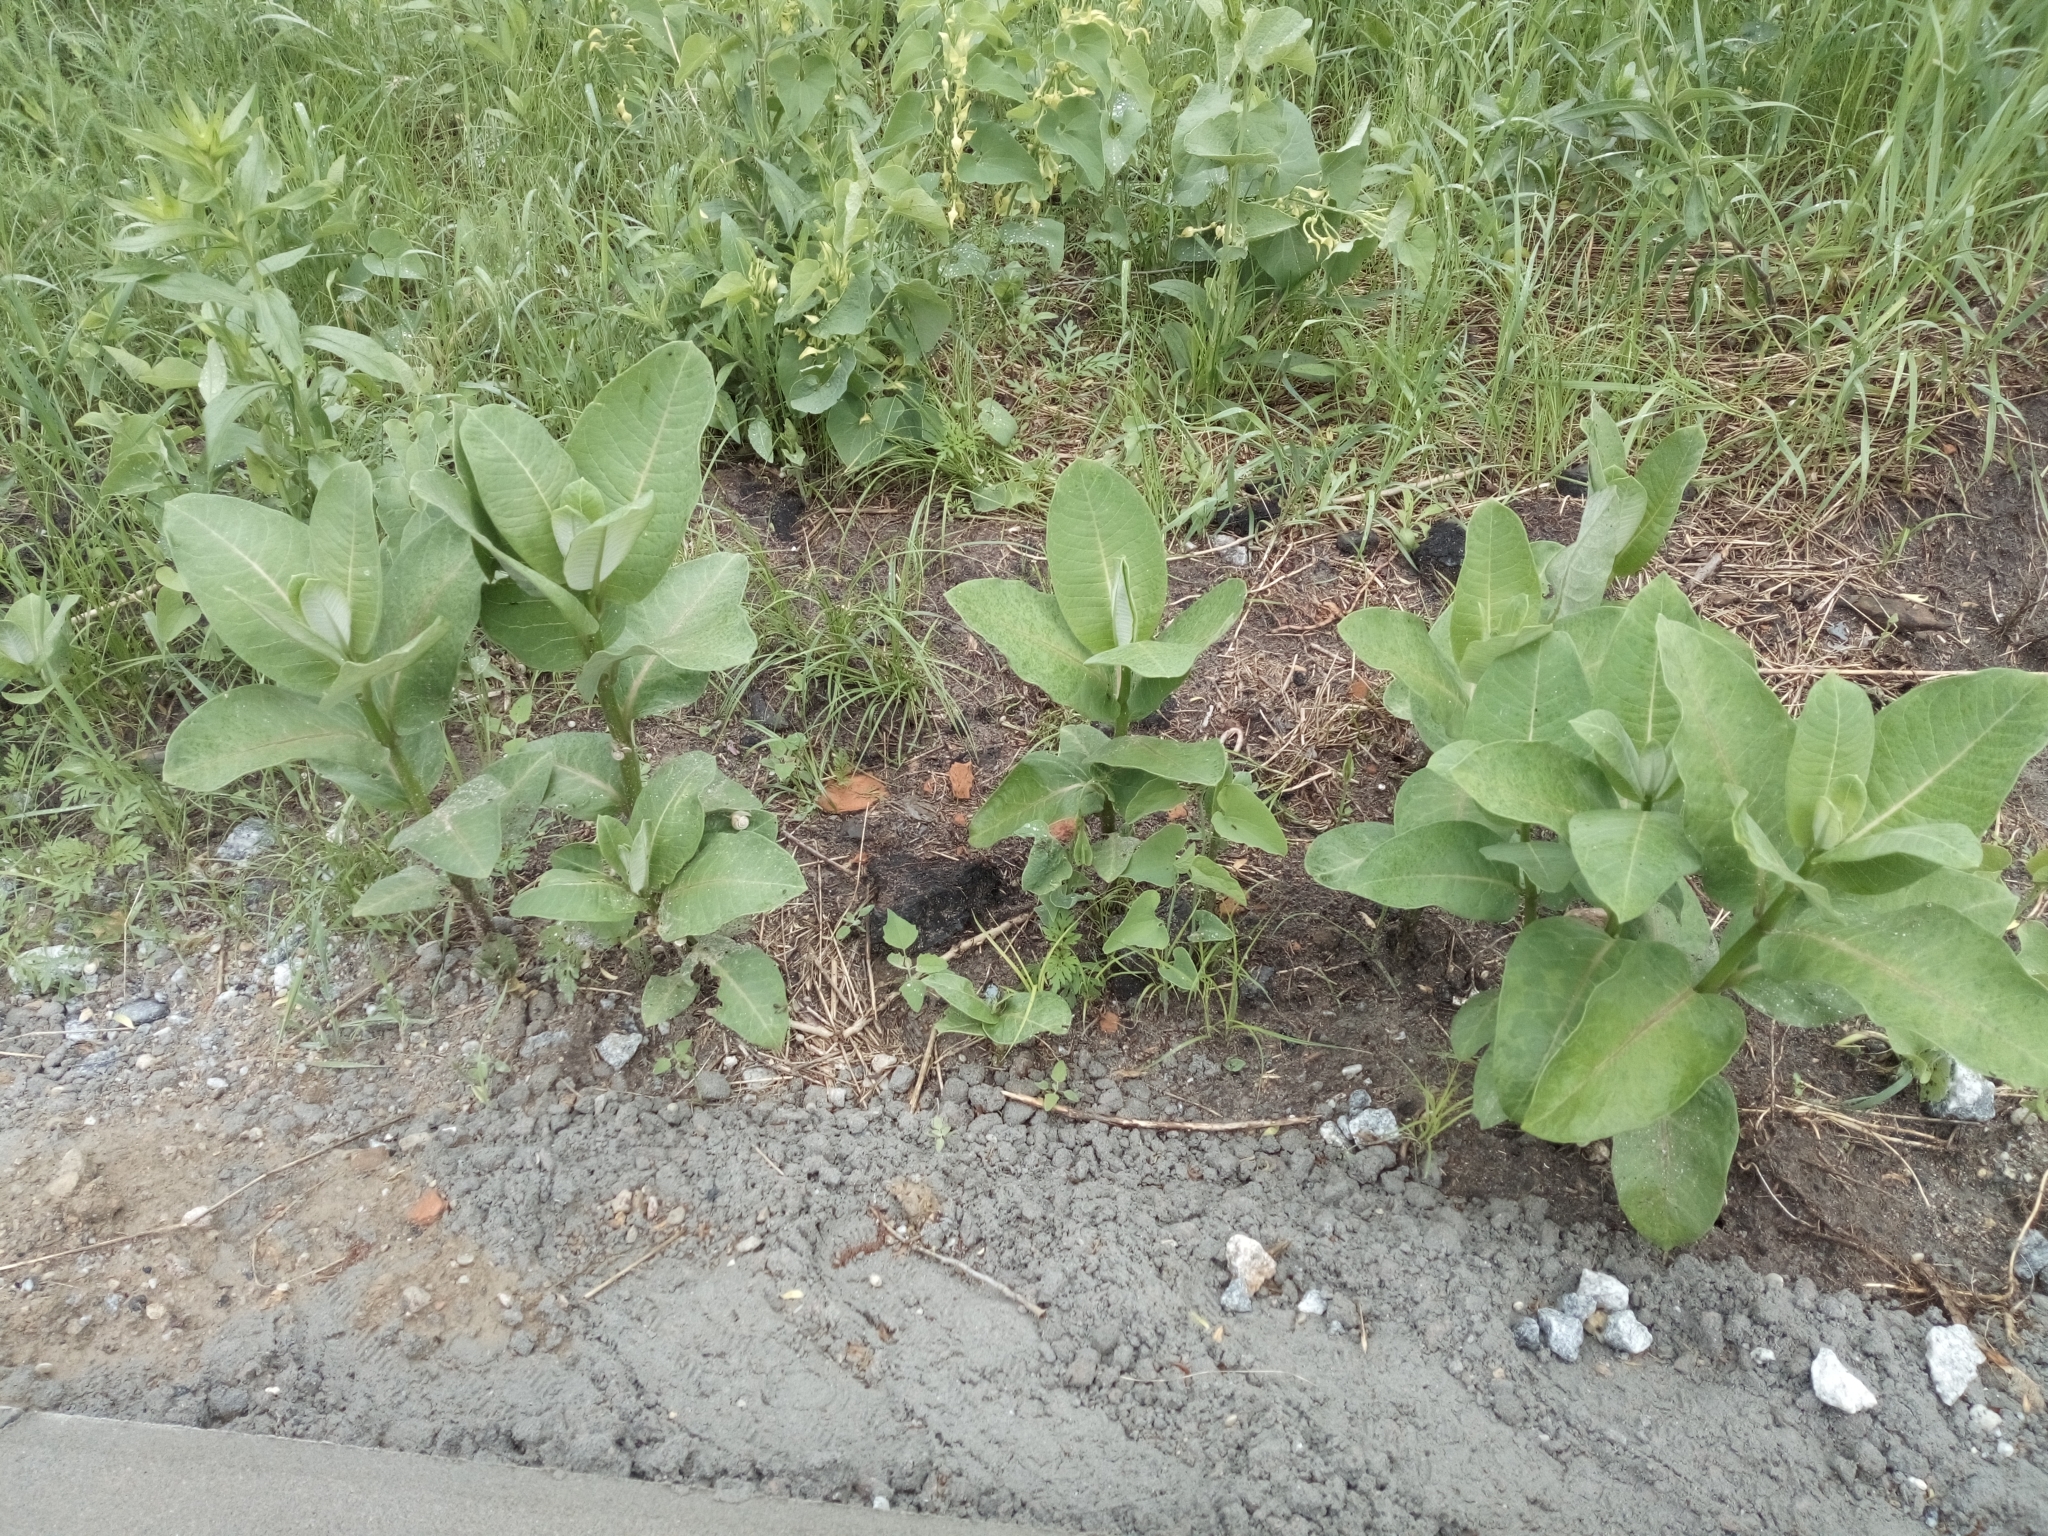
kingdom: Plantae
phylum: Tracheophyta
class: Magnoliopsida
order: Gentianales
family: Apocynaceae
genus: Asclepias
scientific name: Asclepias syriaca
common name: Common milkweed
